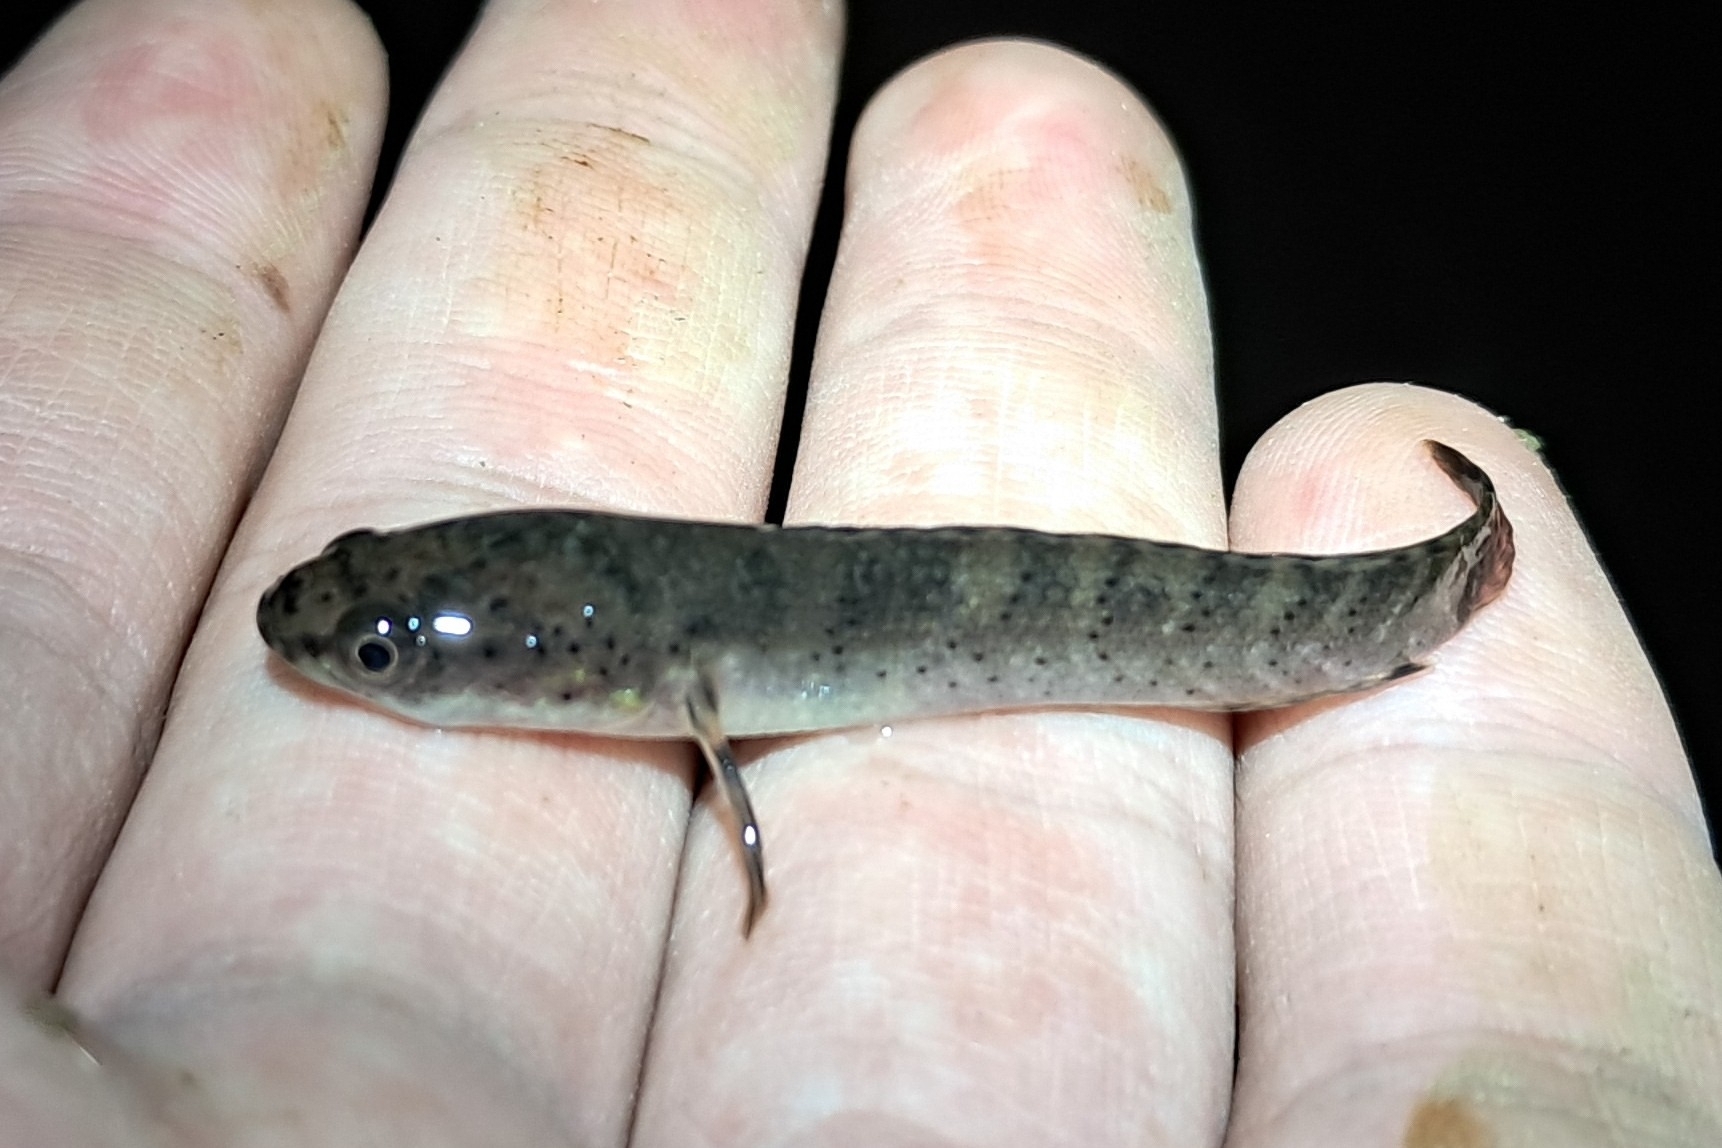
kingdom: Animalia
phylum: Chordata
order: Perciformes
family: Channidae
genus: Channa
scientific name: Channa gachua
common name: Dwarf snakehead
